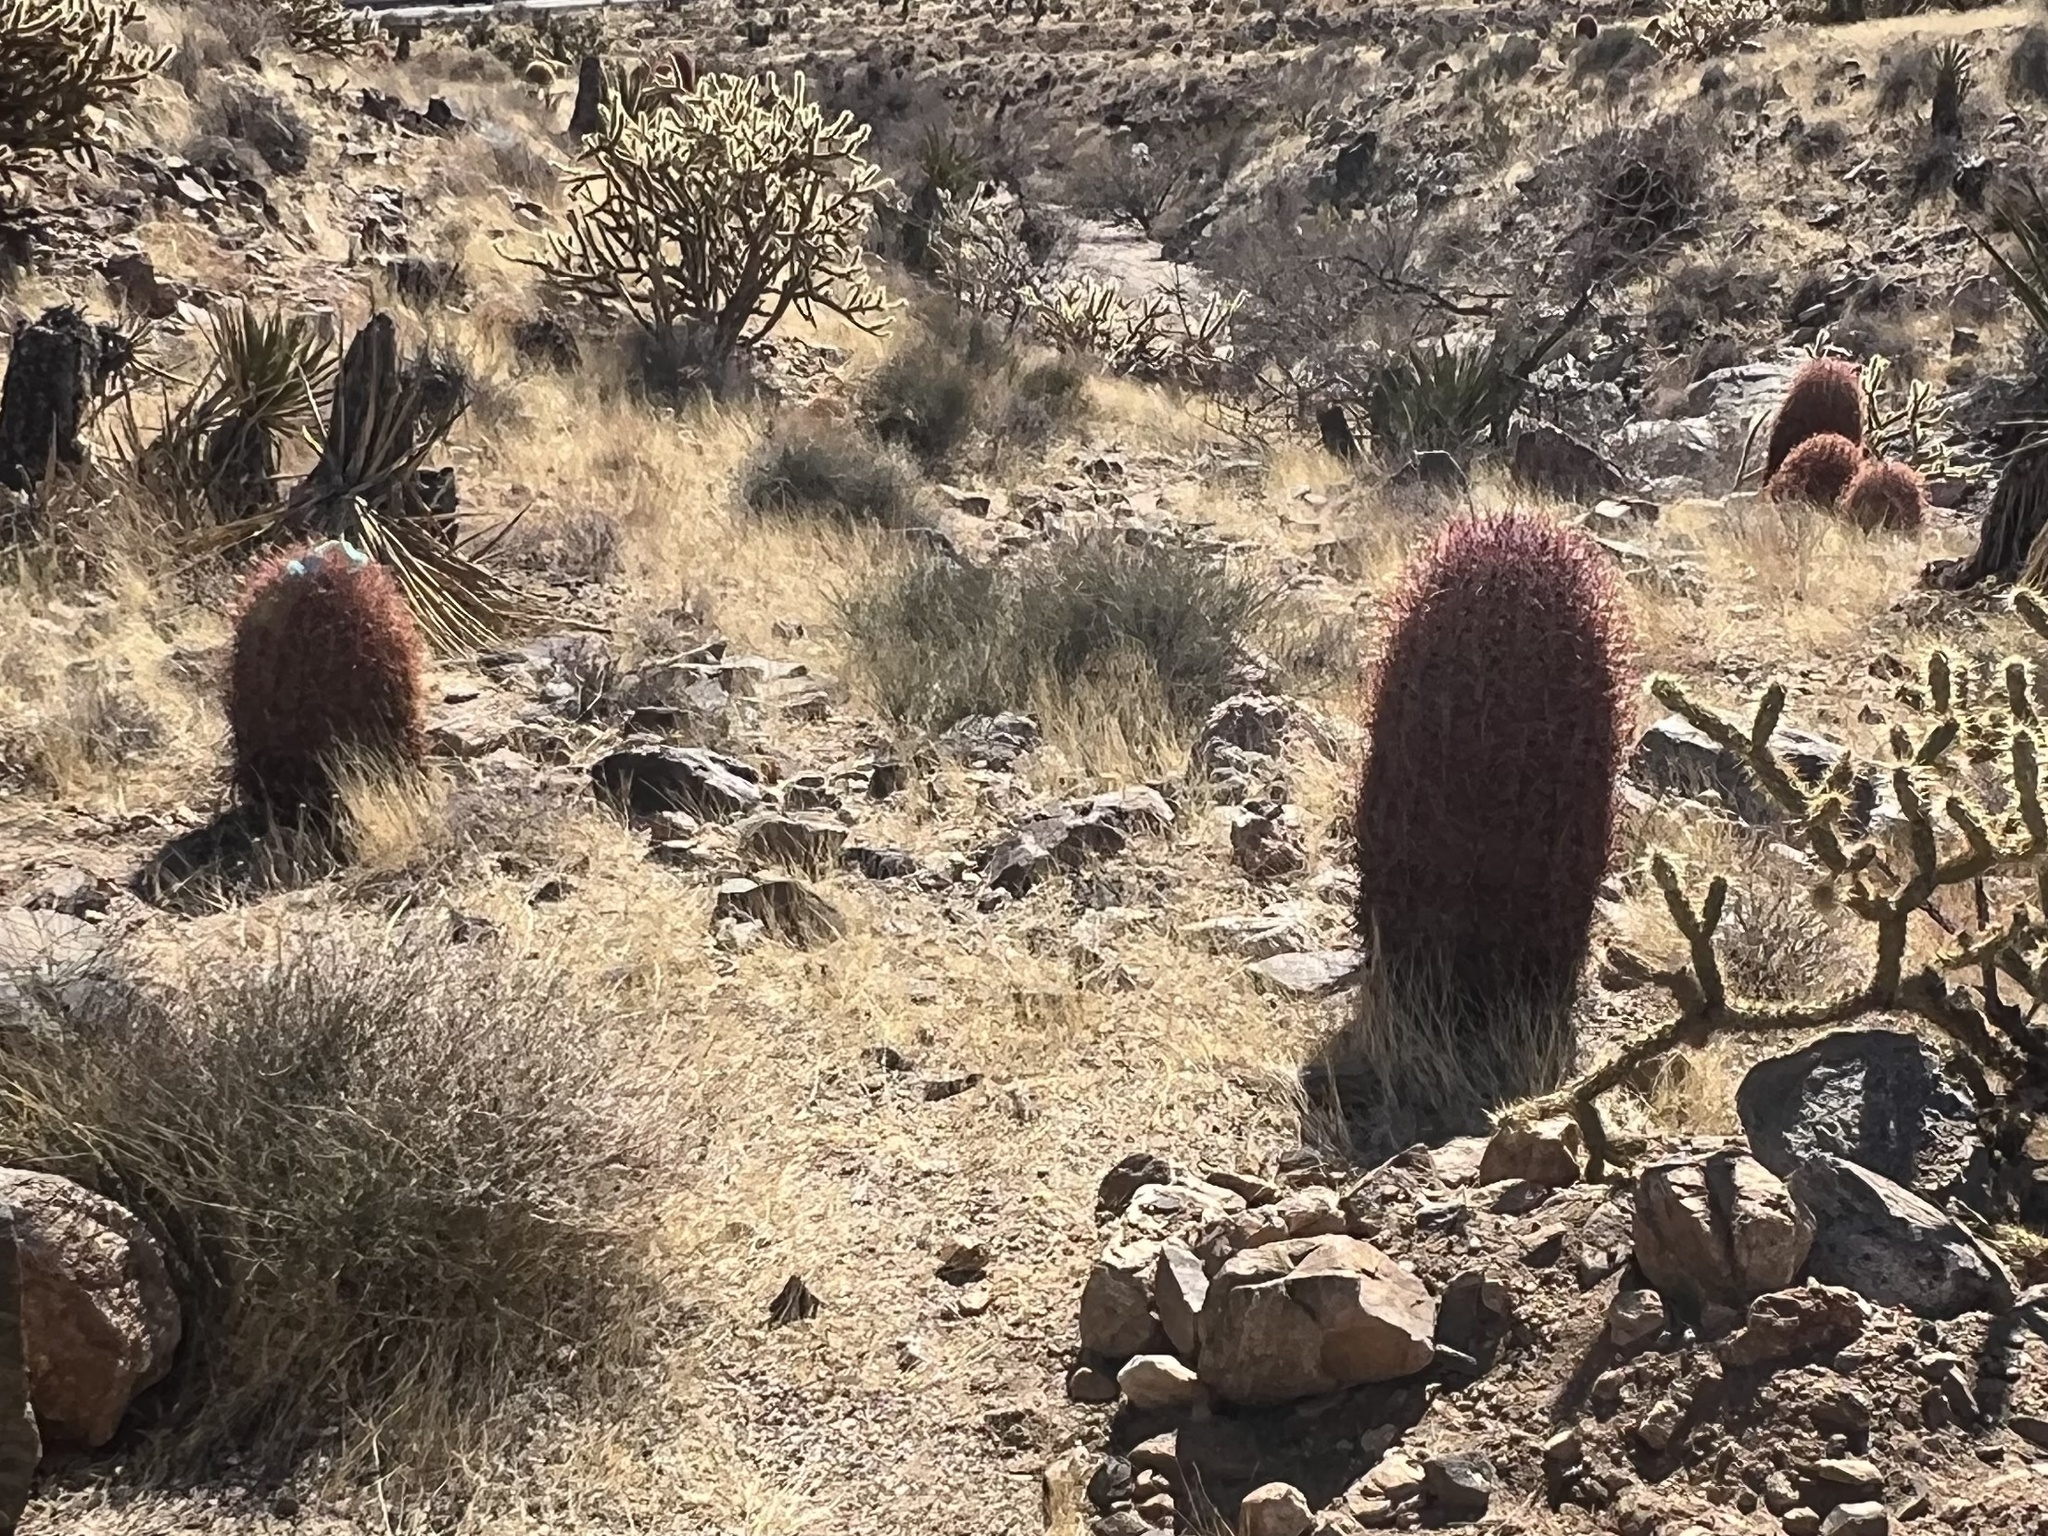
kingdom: Plantae
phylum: Tracheophyta
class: Magnoliopsida
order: Caryophyllales
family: Cactaceae
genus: Ferocactus
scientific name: Ferocactus cylindraceus
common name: California barrel cactus
